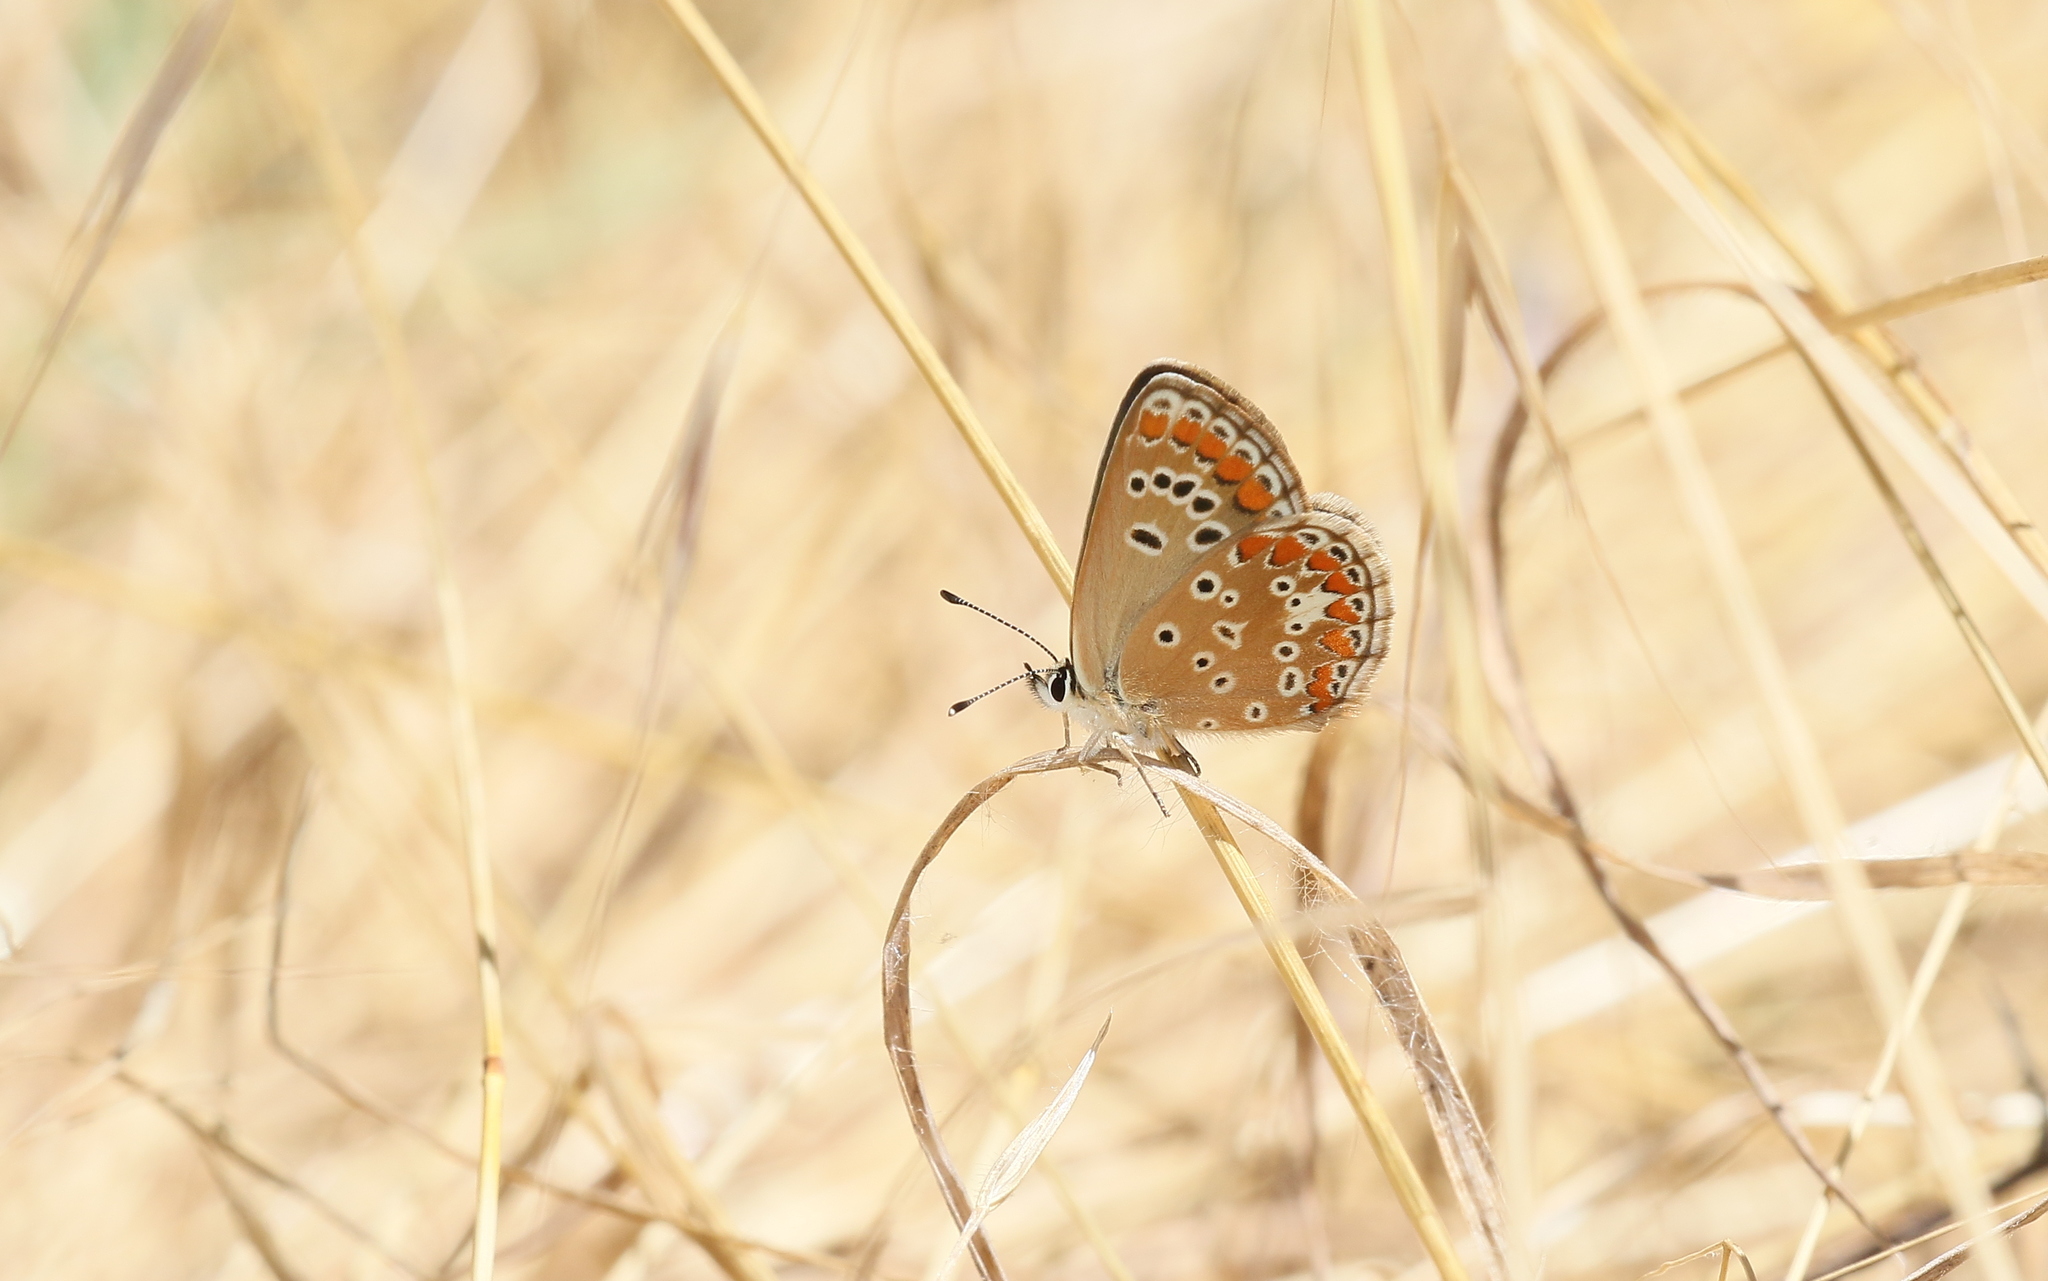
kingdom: Animalia
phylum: Arthropoda
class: Insecta
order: Lepidoptera
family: Lycaenidae
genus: Aricia
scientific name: Aricia agestis
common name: Brown argus
